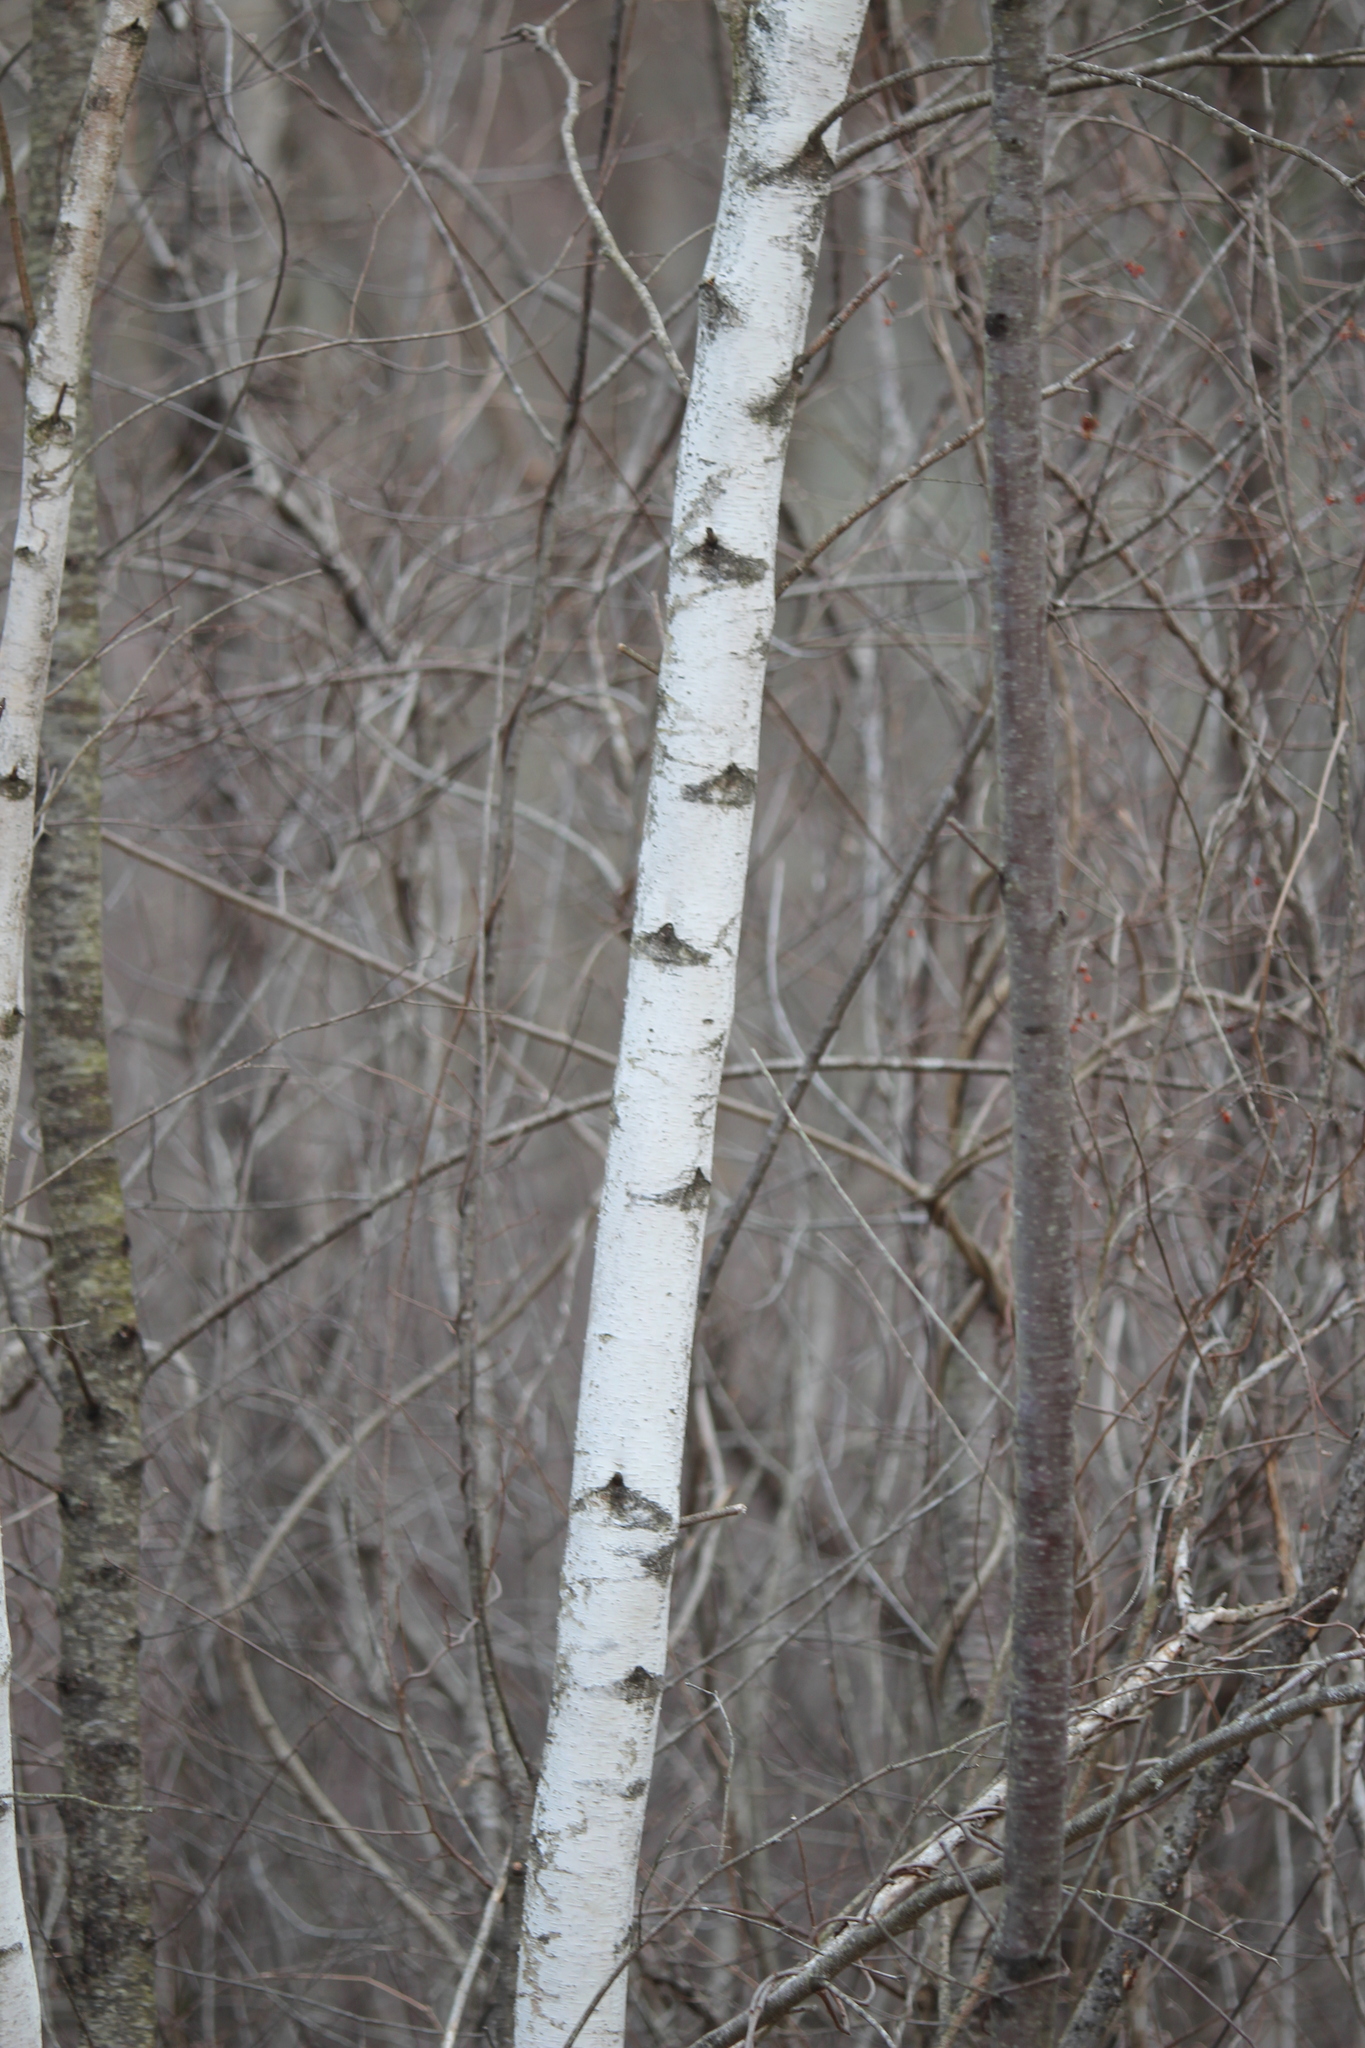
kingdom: Plantae
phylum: Tracheophyta
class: Magnoliopsida
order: Fagales
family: Betulaceae
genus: Betula
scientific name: Betula populifolia
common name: Fire birch
